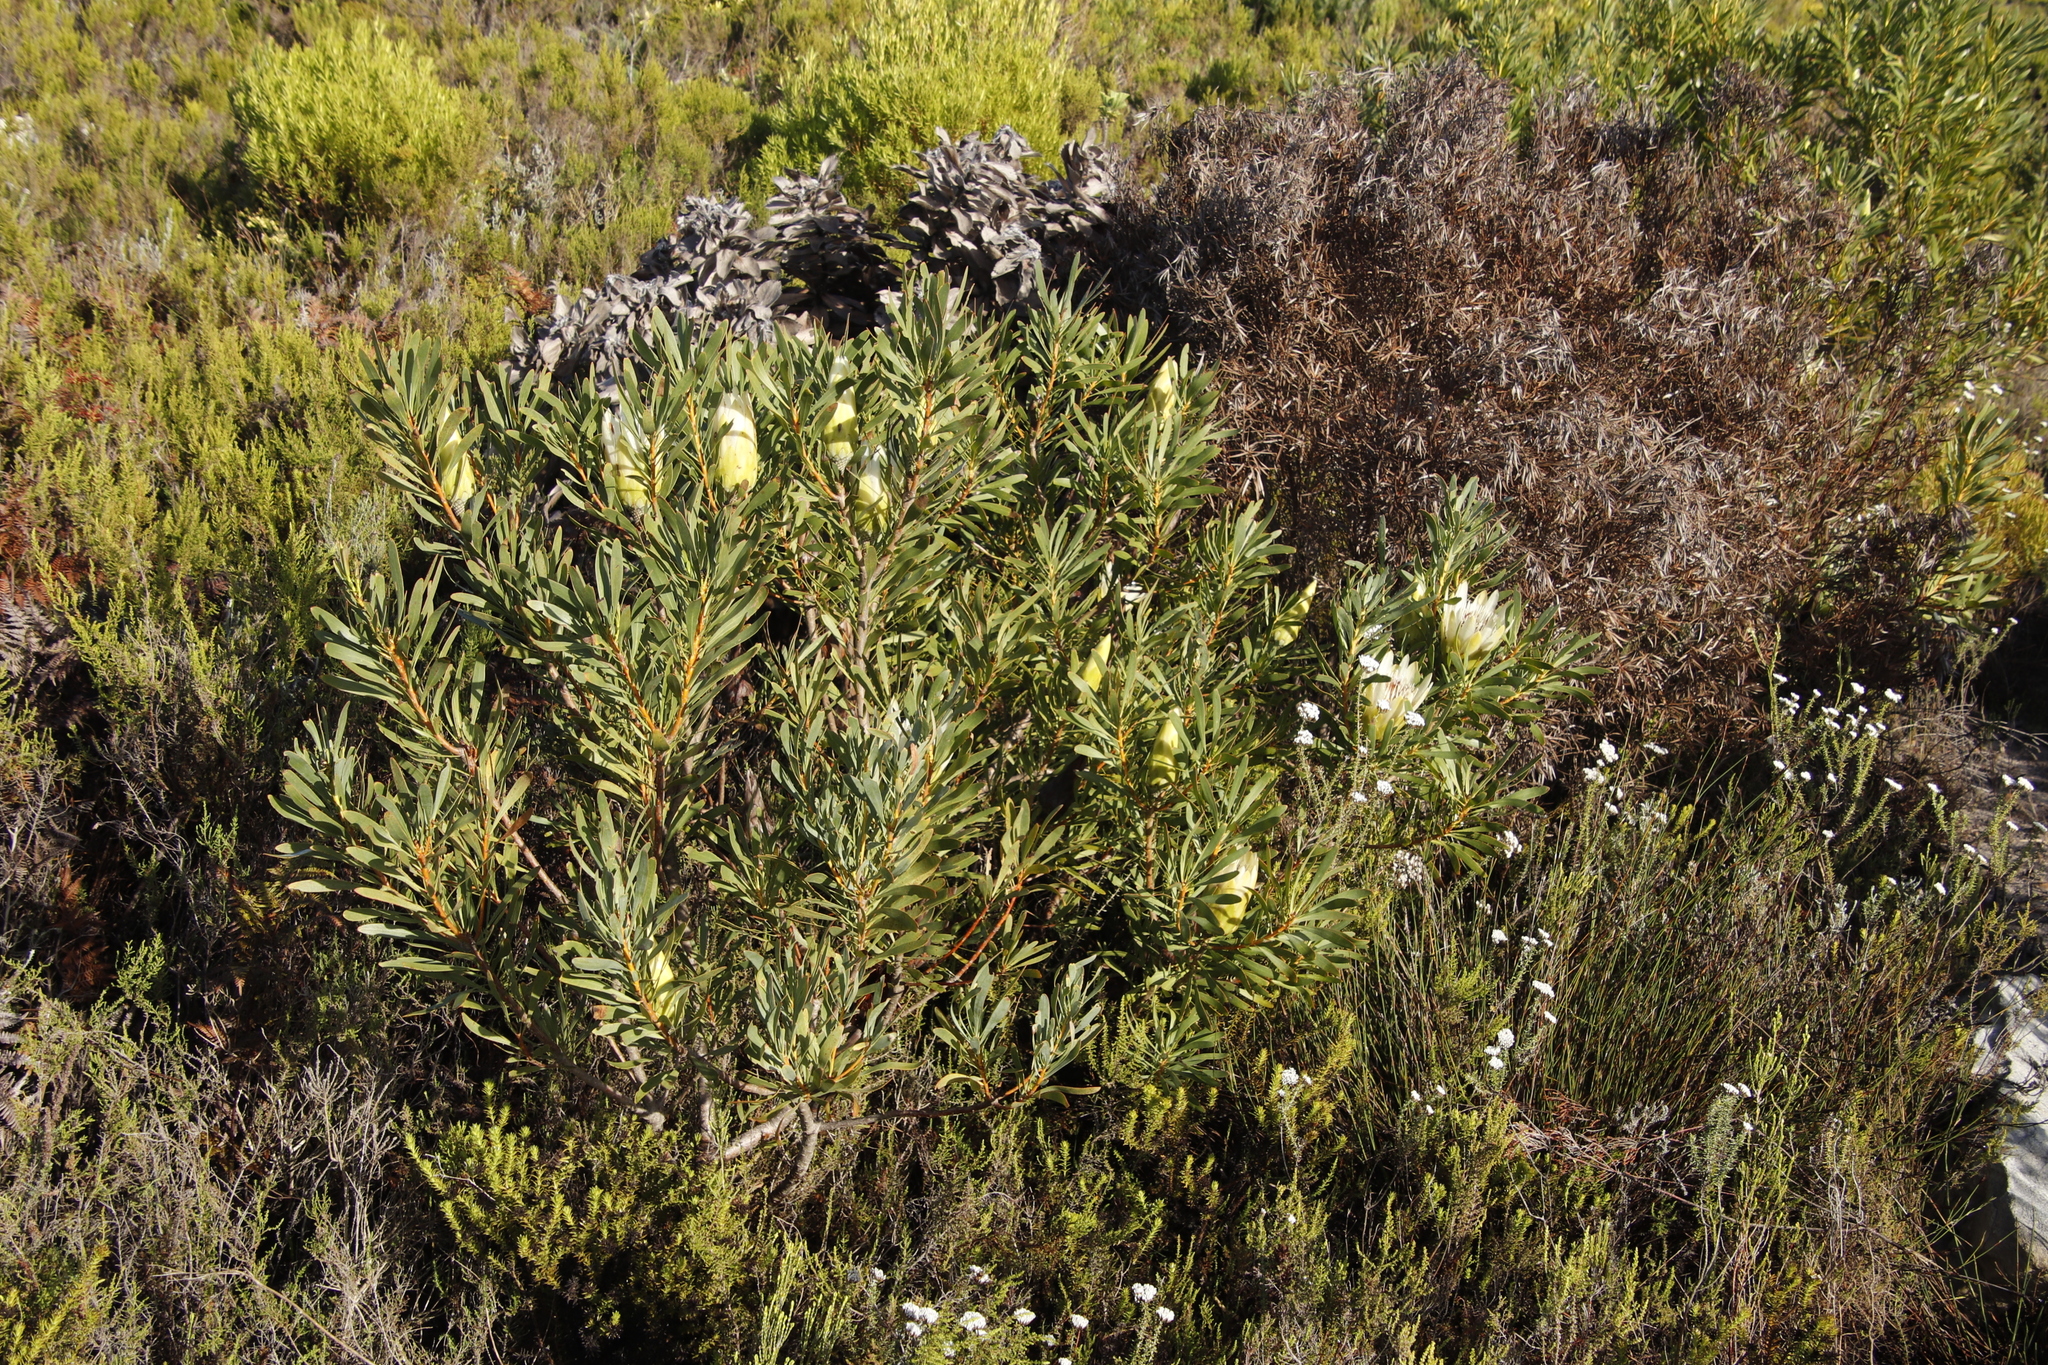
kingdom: Plantae
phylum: Tracheophyta
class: Magnoliopsida
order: Proteales
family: Proteaceae
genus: Protea
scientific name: Protea repens
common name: Sugarbush
